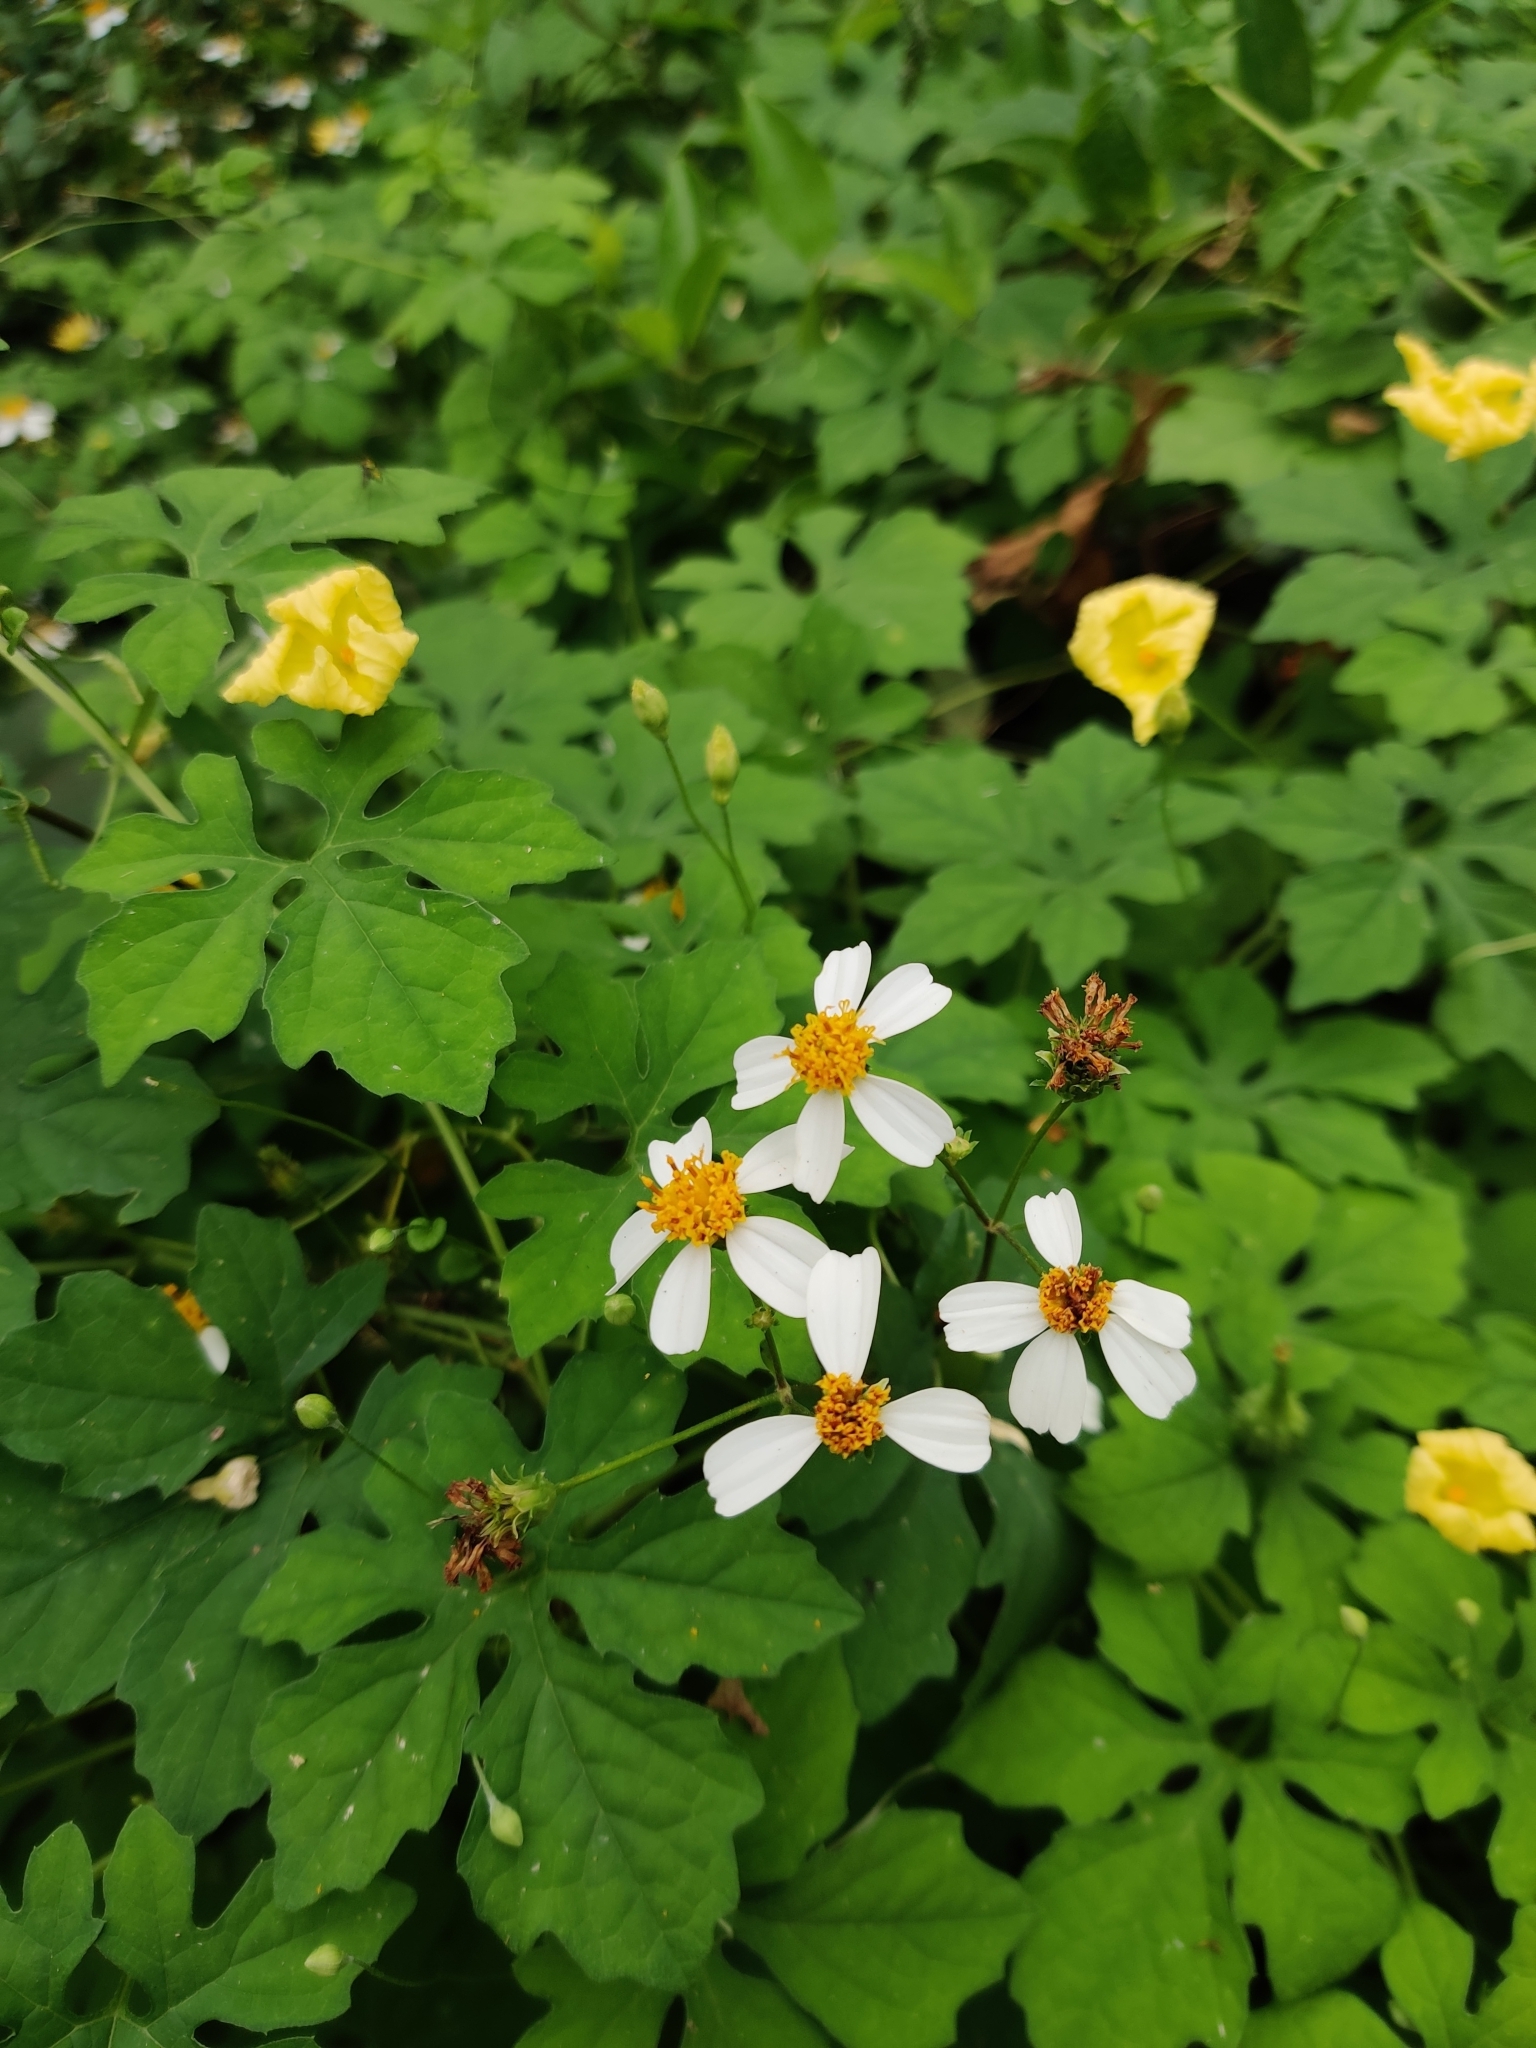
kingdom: Plantae
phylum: Tracheophyta
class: Magnoliopsida
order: Asterales
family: Asteraceae
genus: Bidens
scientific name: Bidens alba
